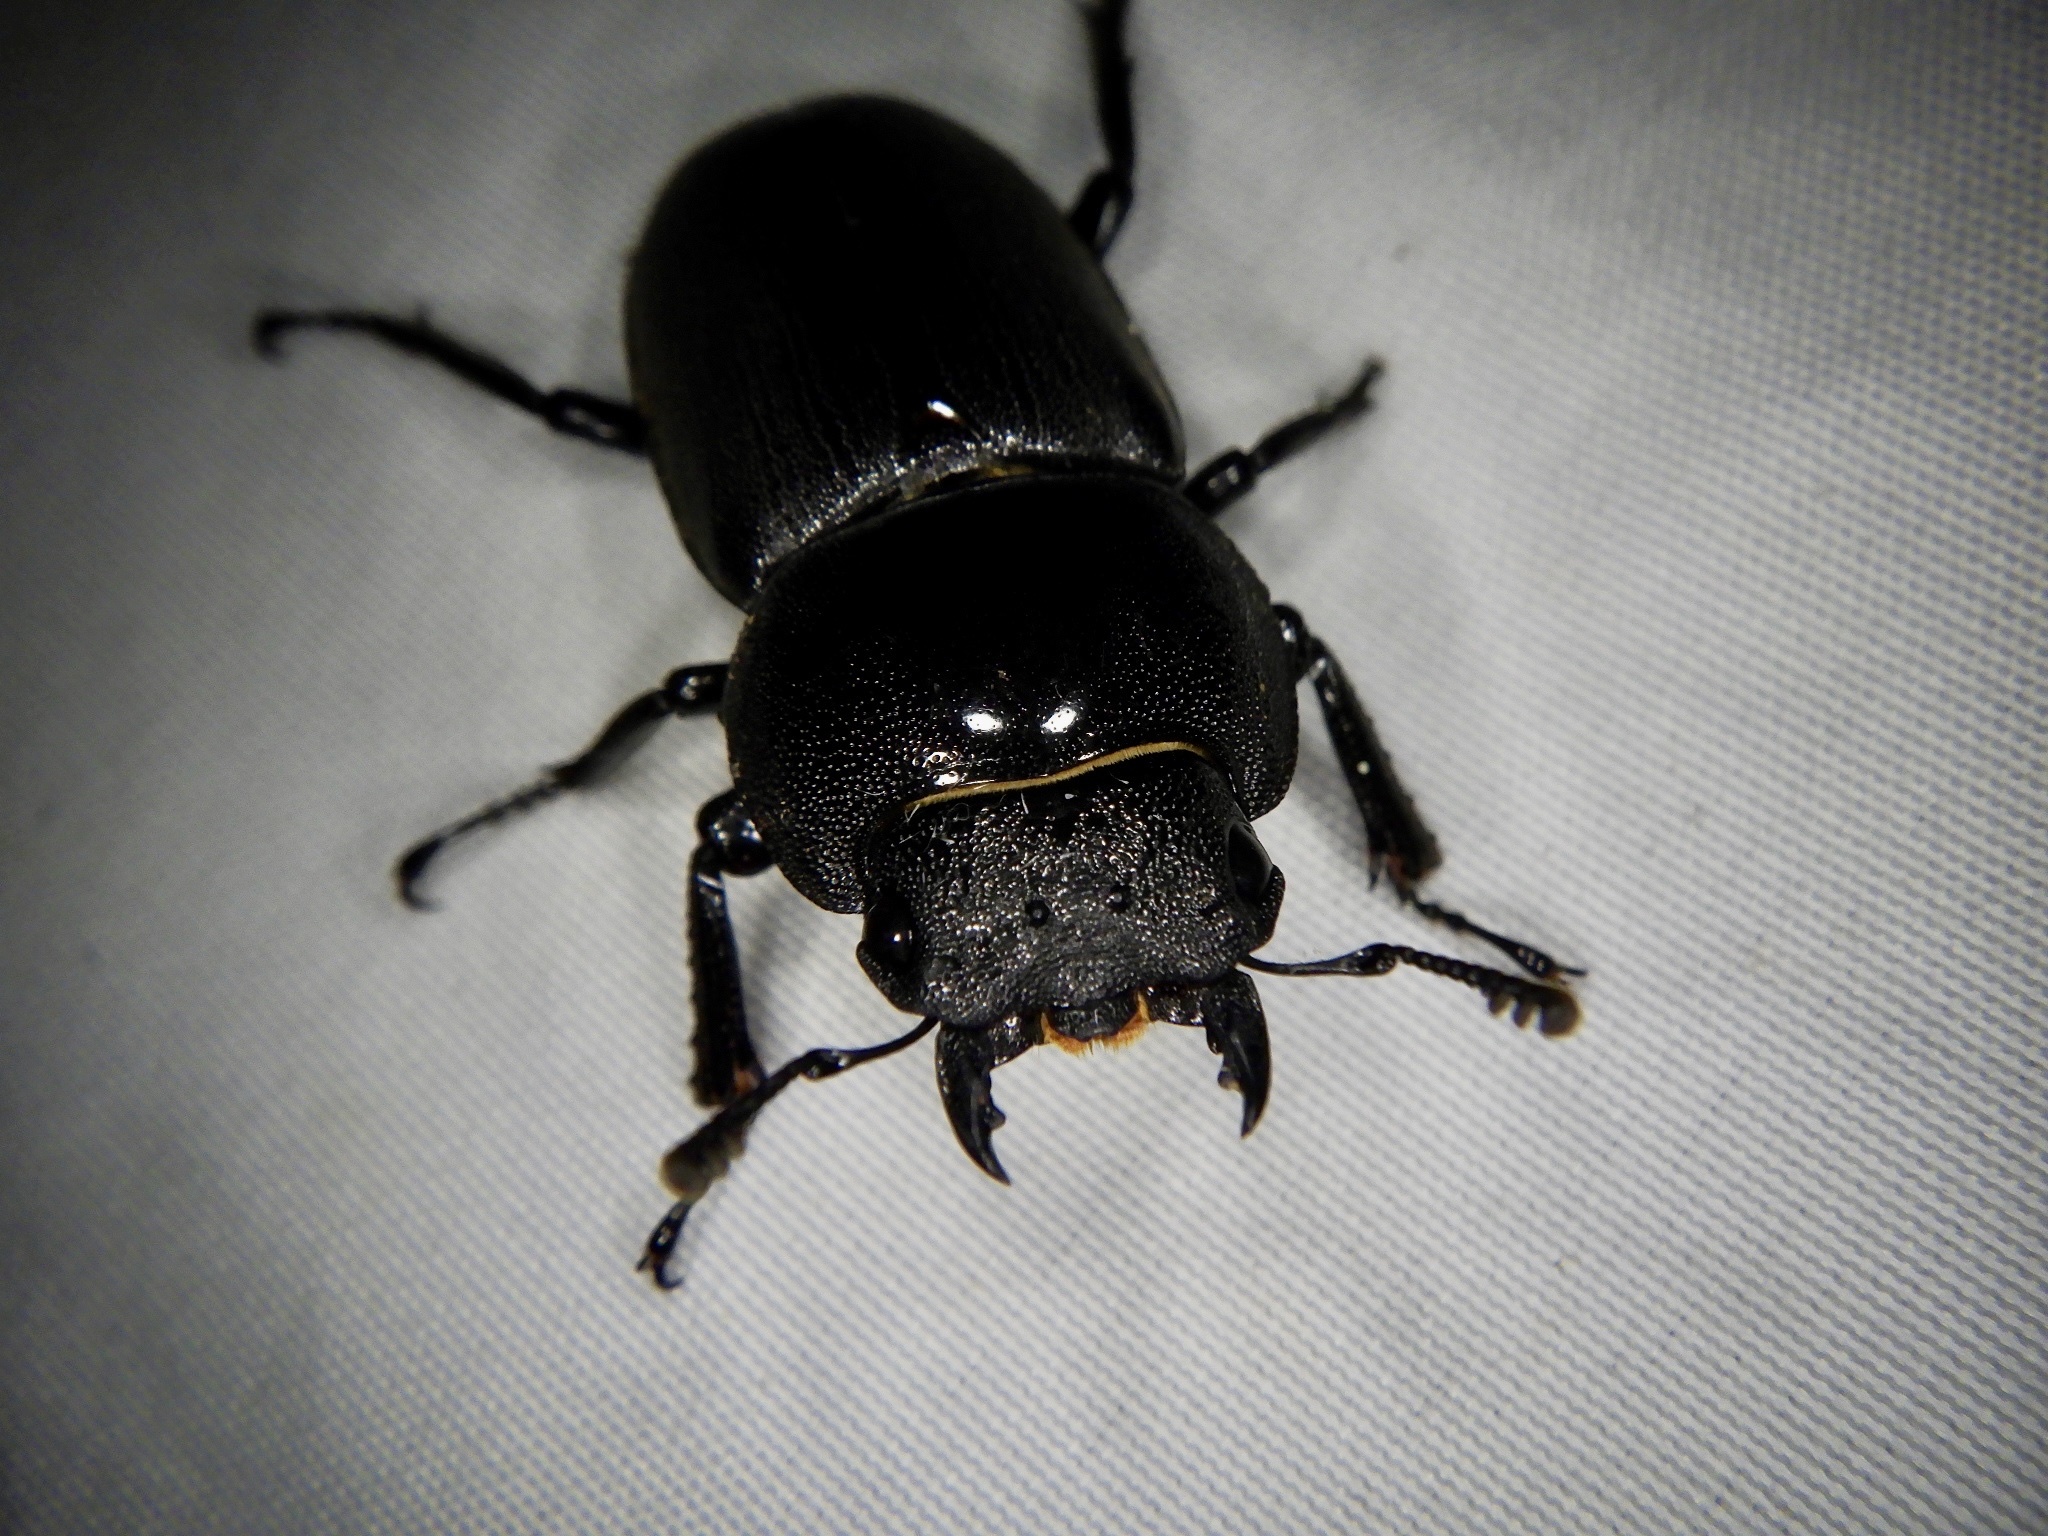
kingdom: Animalia
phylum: Arthropoda
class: Insecta
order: Coleoptera
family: Lucanidae
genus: Dorcus
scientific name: Dorcus rectus
